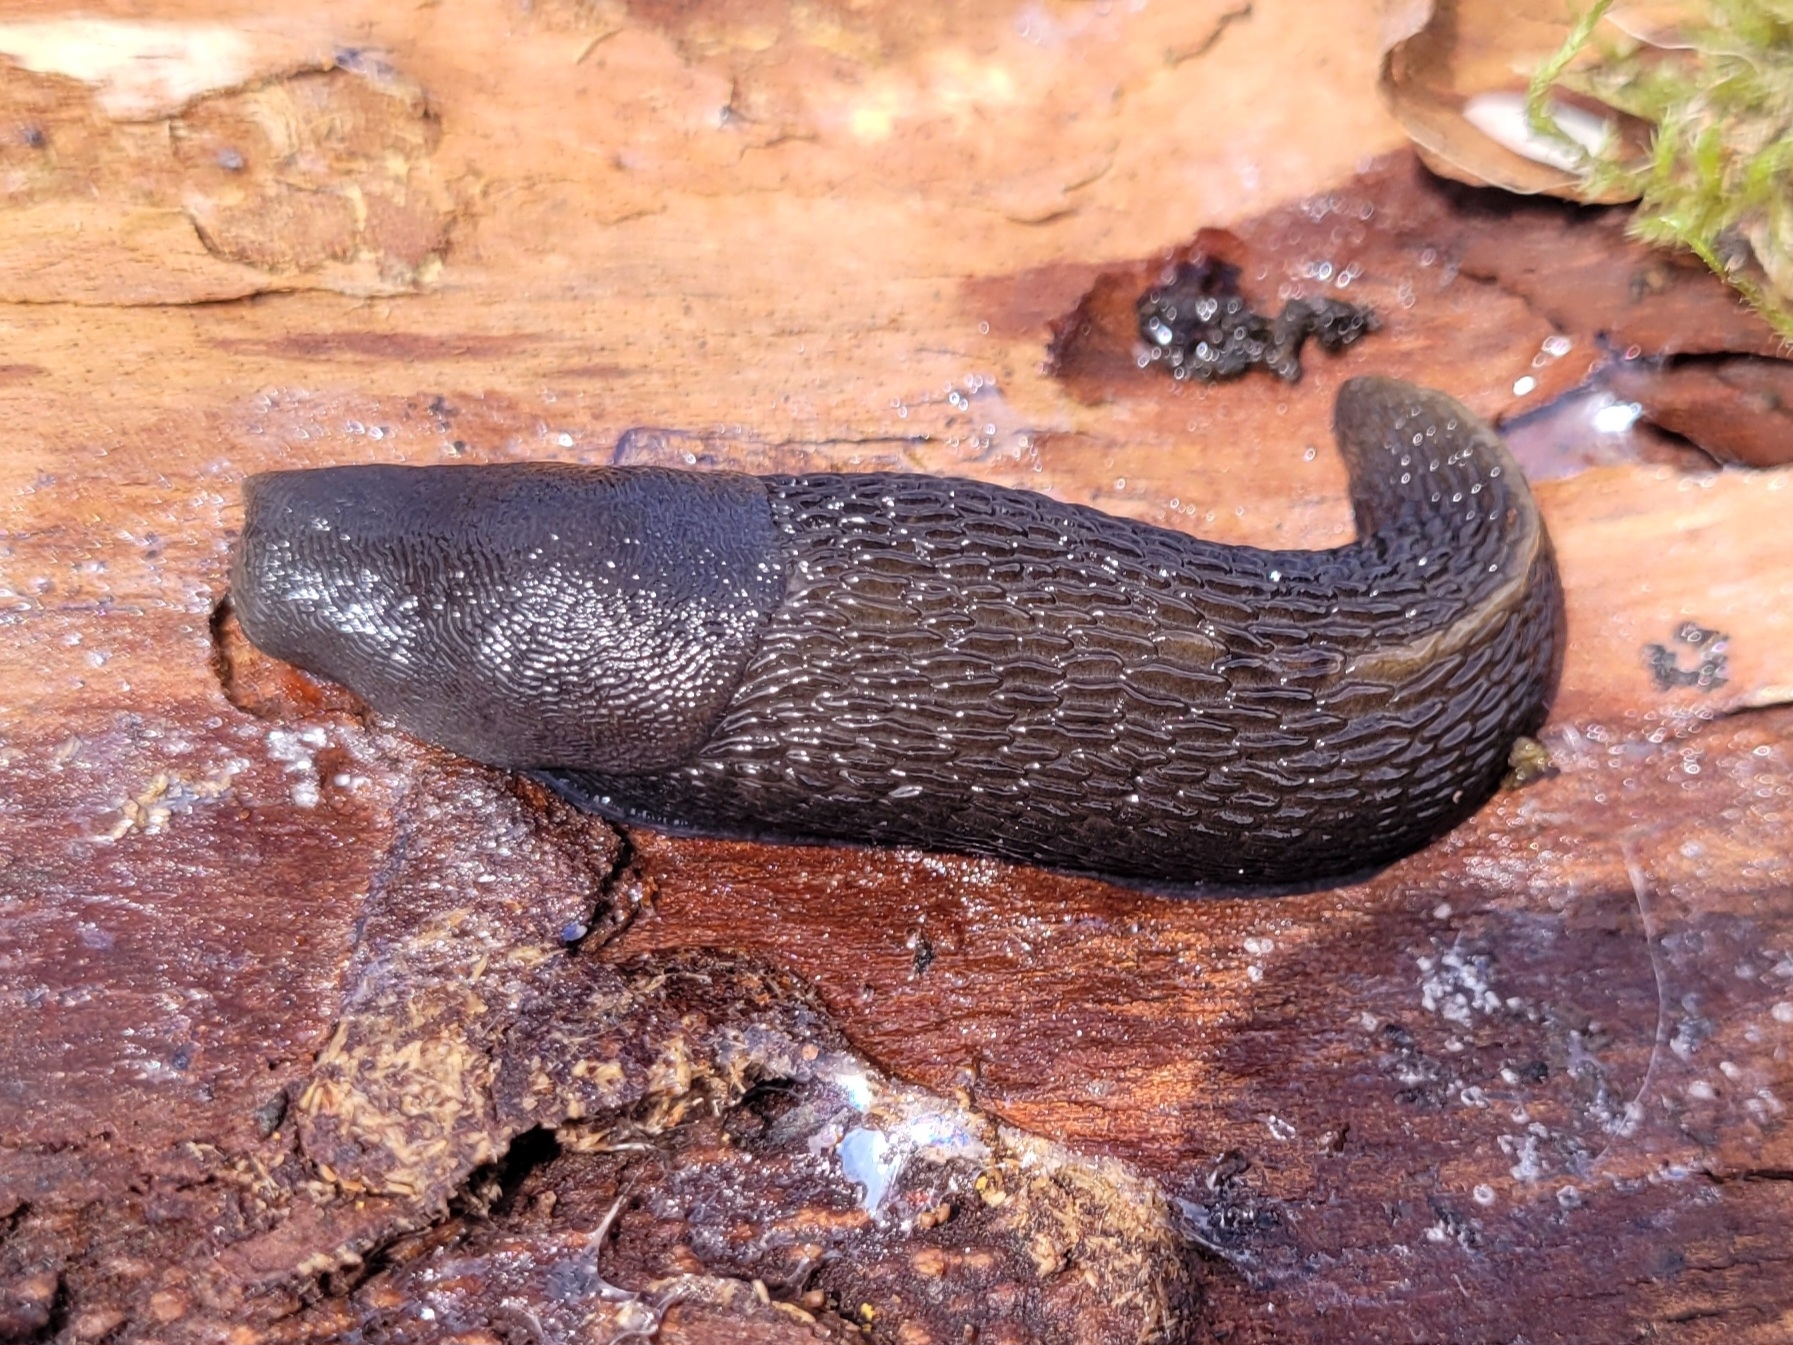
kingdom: Animalia
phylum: Mollusca
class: Gastropoda
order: Stylommatophora
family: Limacidae
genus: Limax
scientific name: Limax cinereoniger
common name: Ash-black slug
